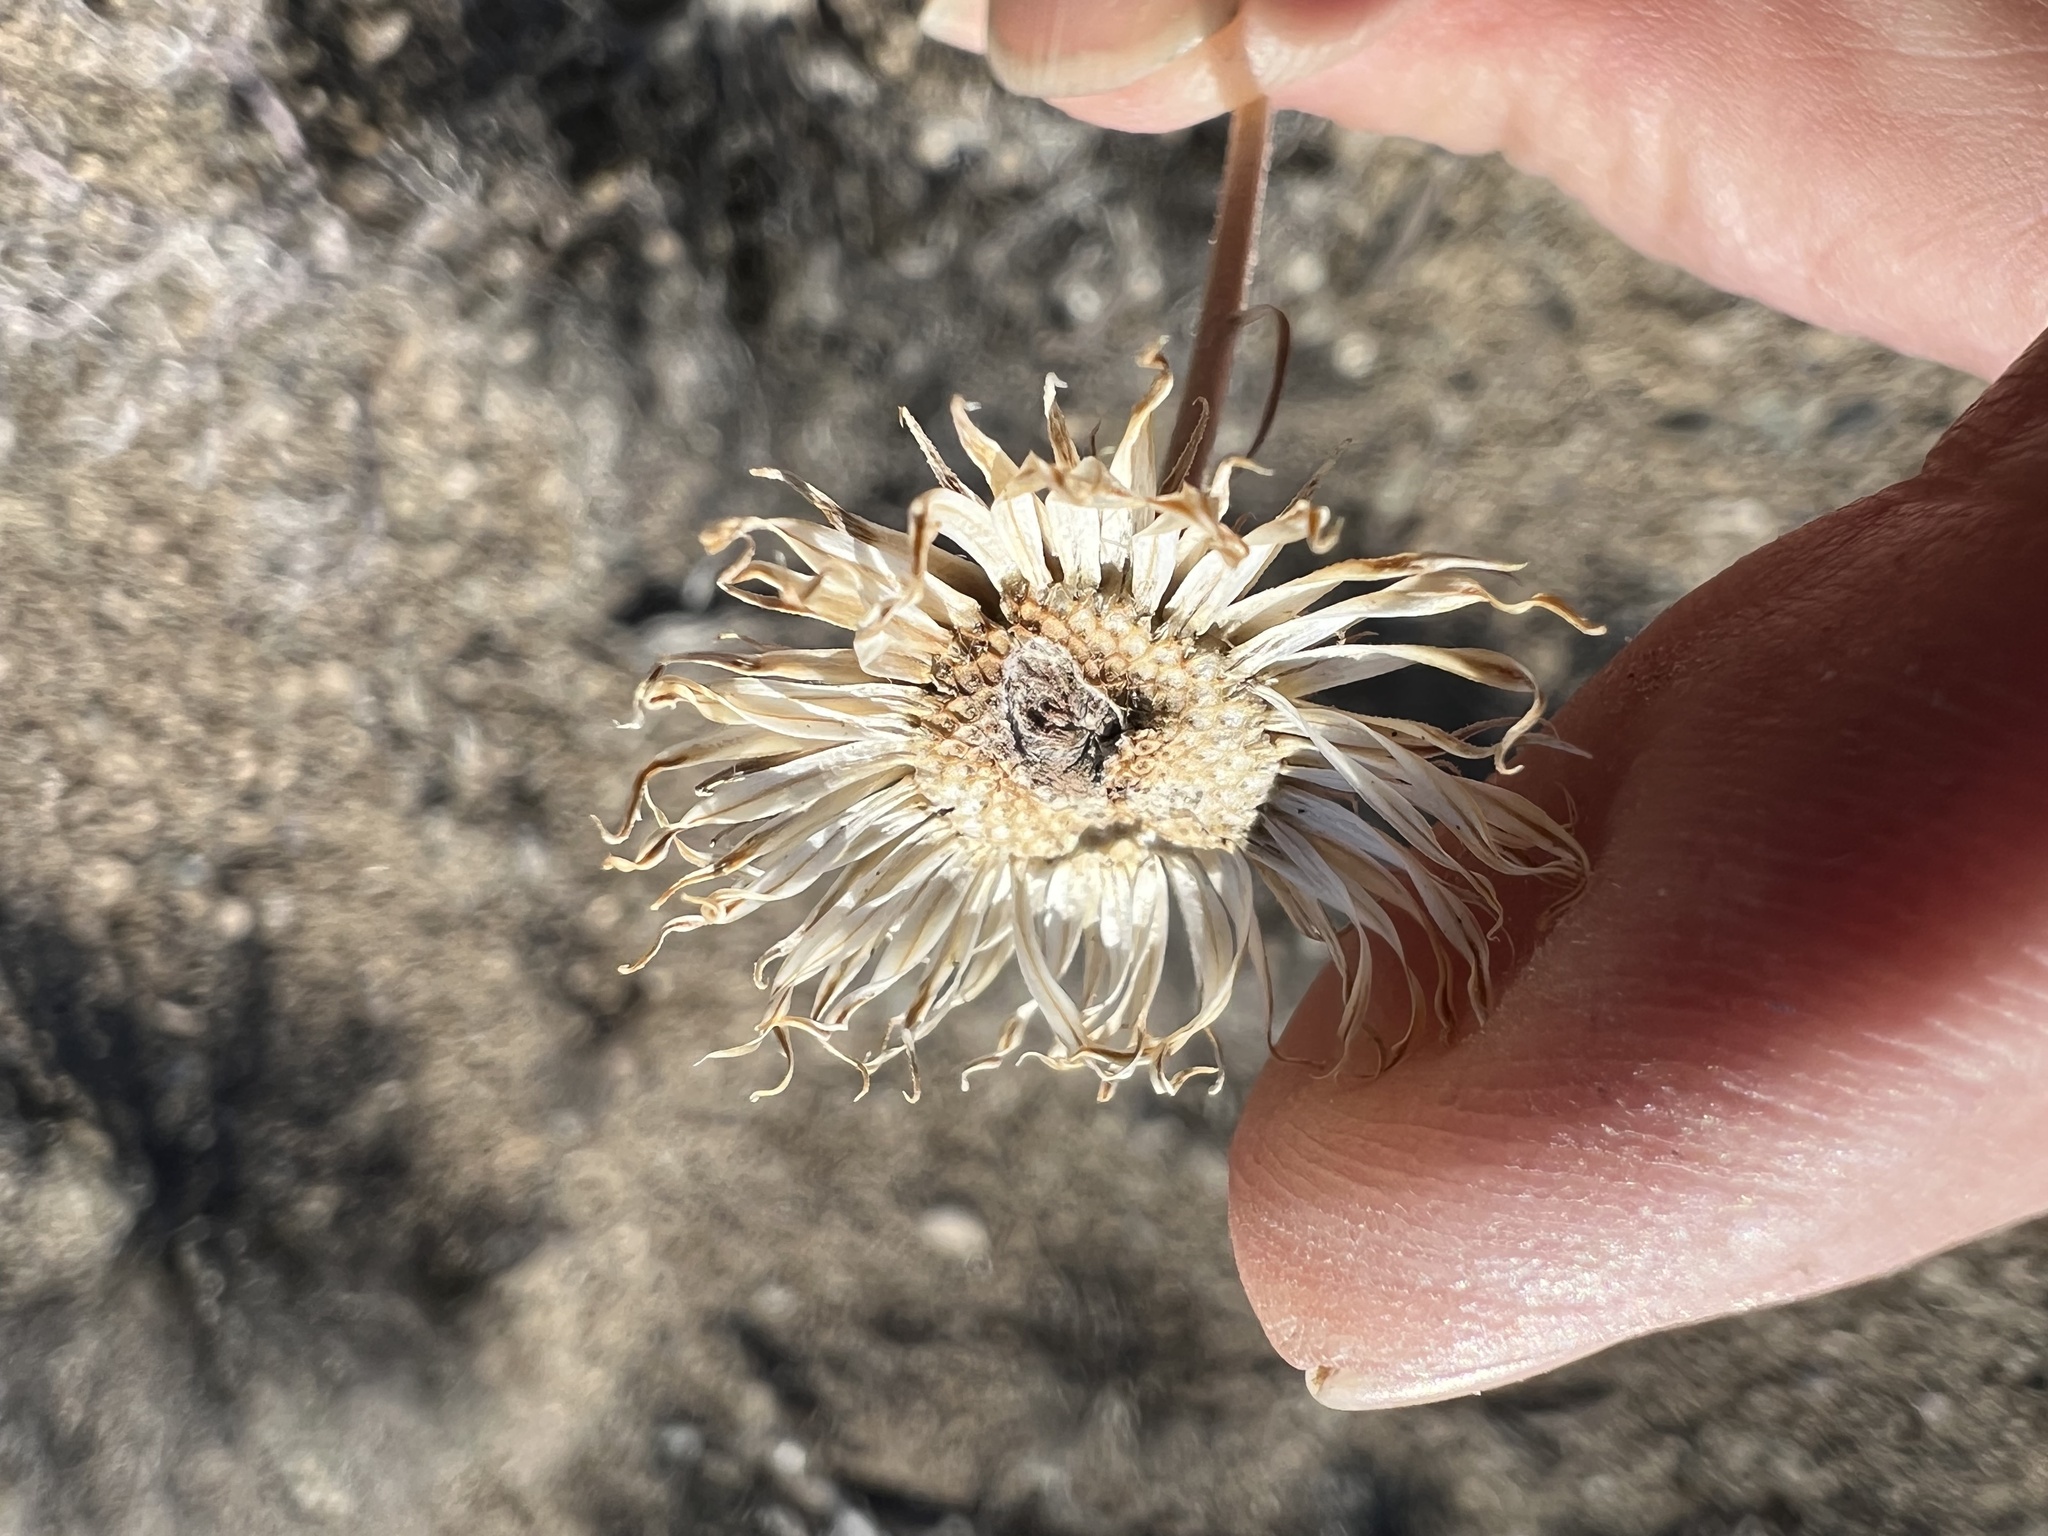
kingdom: Plantae
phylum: Tracheophyta
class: Magnoliopsida
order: Asterales
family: Asteraceae
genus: Xylorhiza
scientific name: Xylorhiza tortifolia
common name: Hurt-leaf woody-aster
